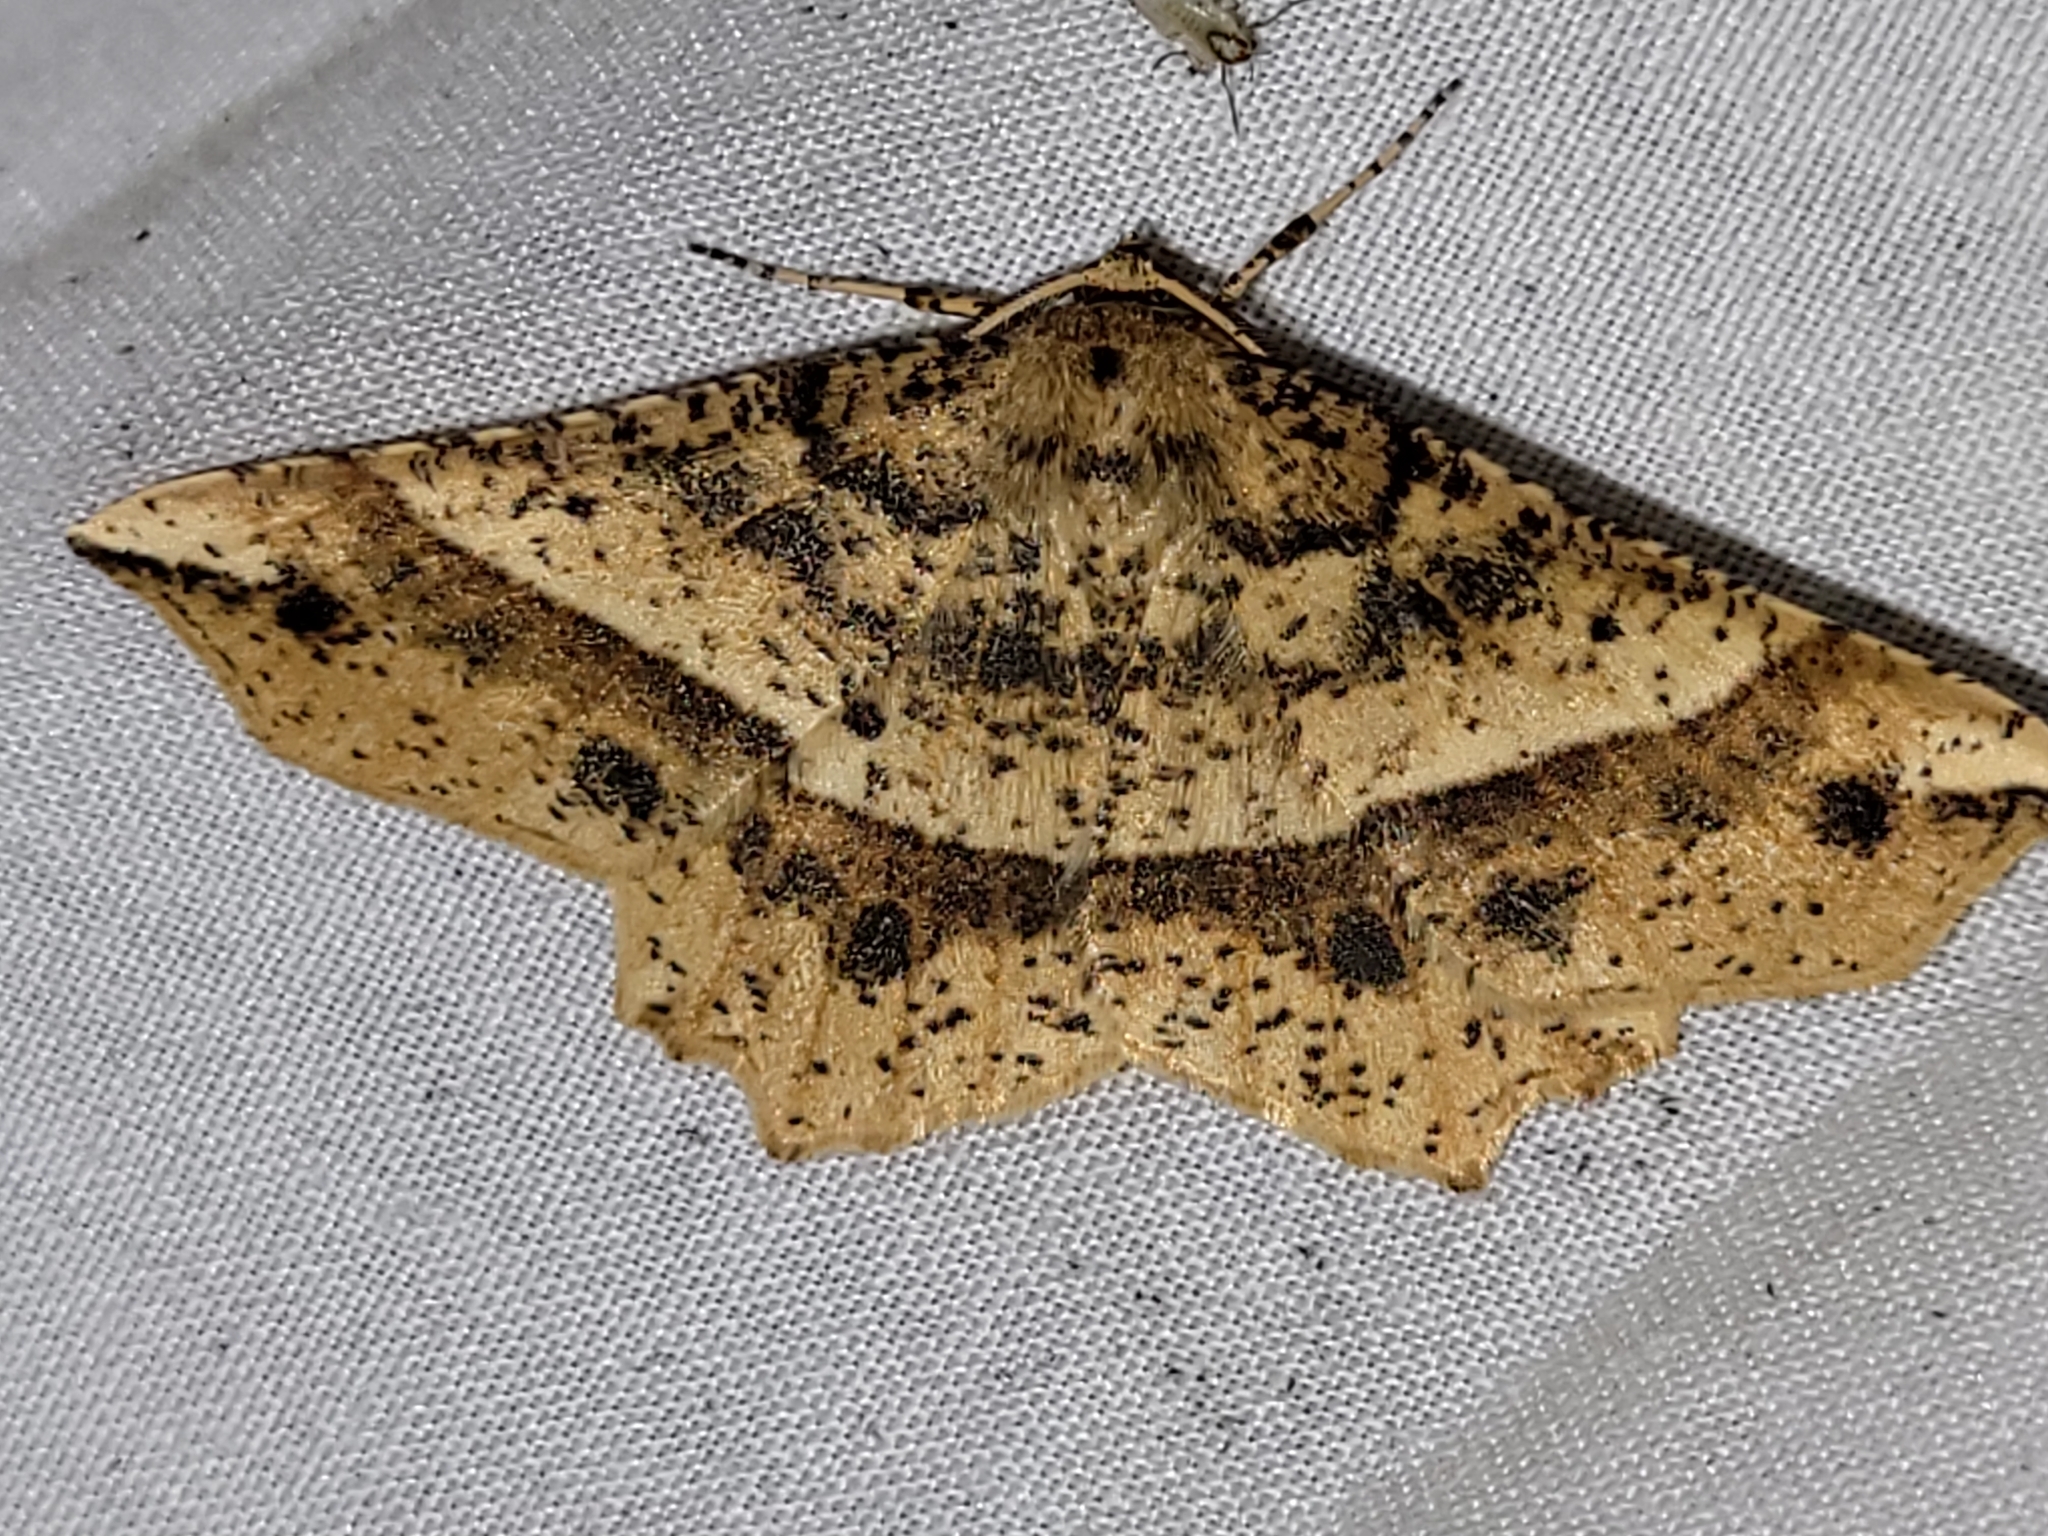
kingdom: Animalia
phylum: Arthropoda
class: Insecta
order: Lepidoptera
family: Geometridae
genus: Euchlaena
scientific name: Euchlaena tigrinaria
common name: Mottled euchlaena moth
